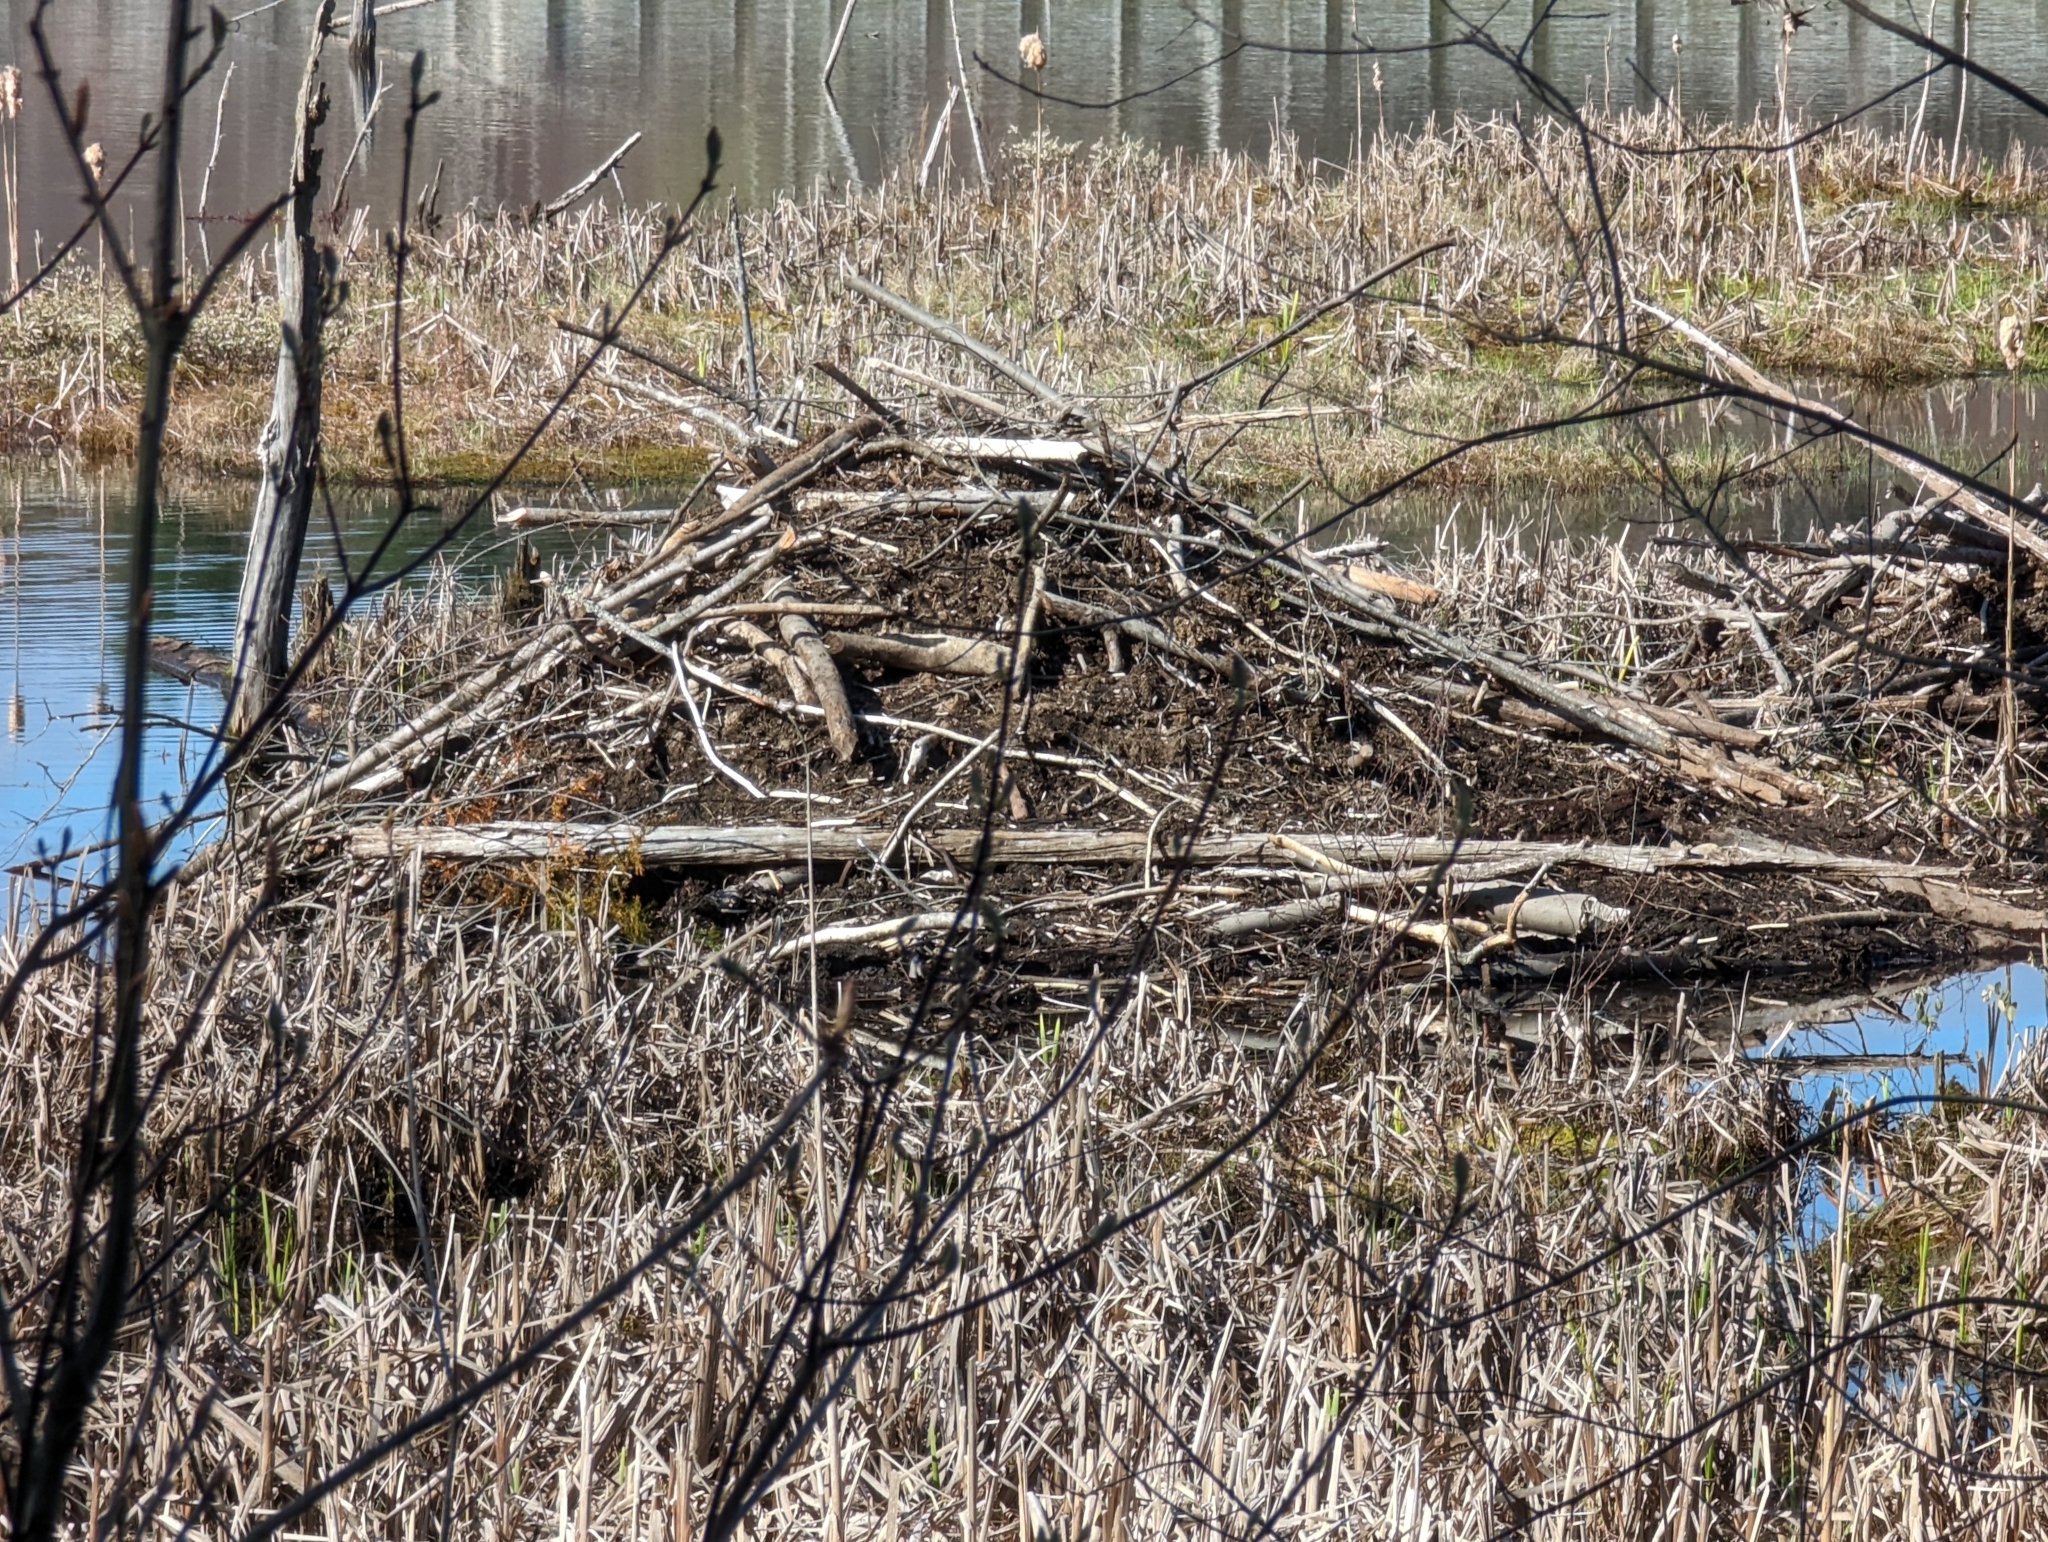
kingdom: Animalia
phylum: Chordata
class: Mammalia
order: Rodentia
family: Castoridae
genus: Castor
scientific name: Castor canadensis
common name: American beaver
